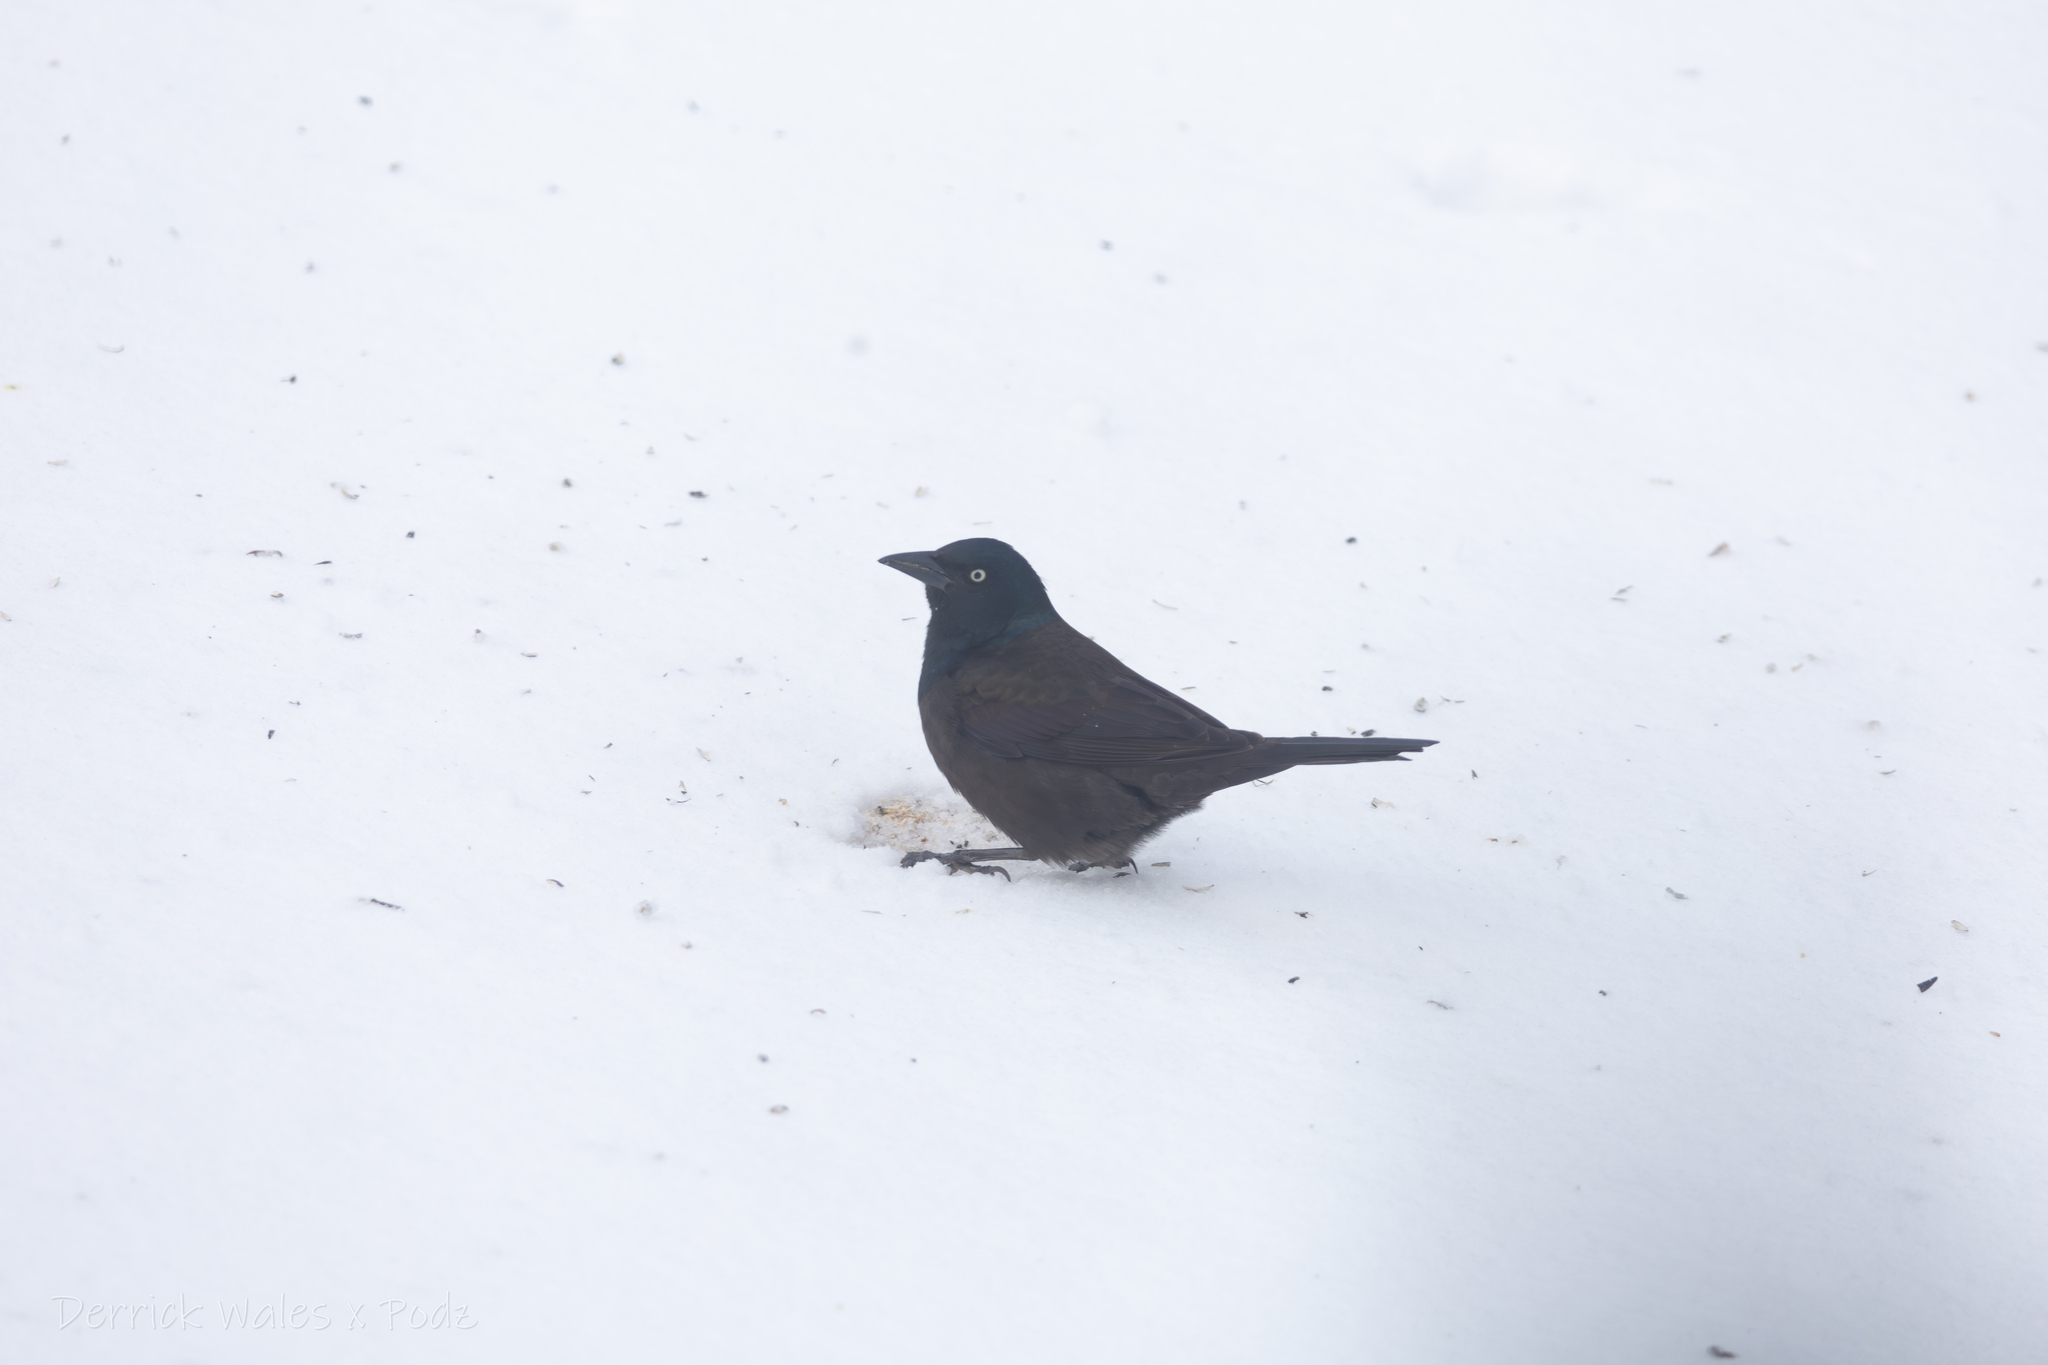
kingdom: Animalia
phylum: Chordata
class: Aves
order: Passeriformes
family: Icteridae
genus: Quiscalus
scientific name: Quiscalus quiscula
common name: Common grackle
